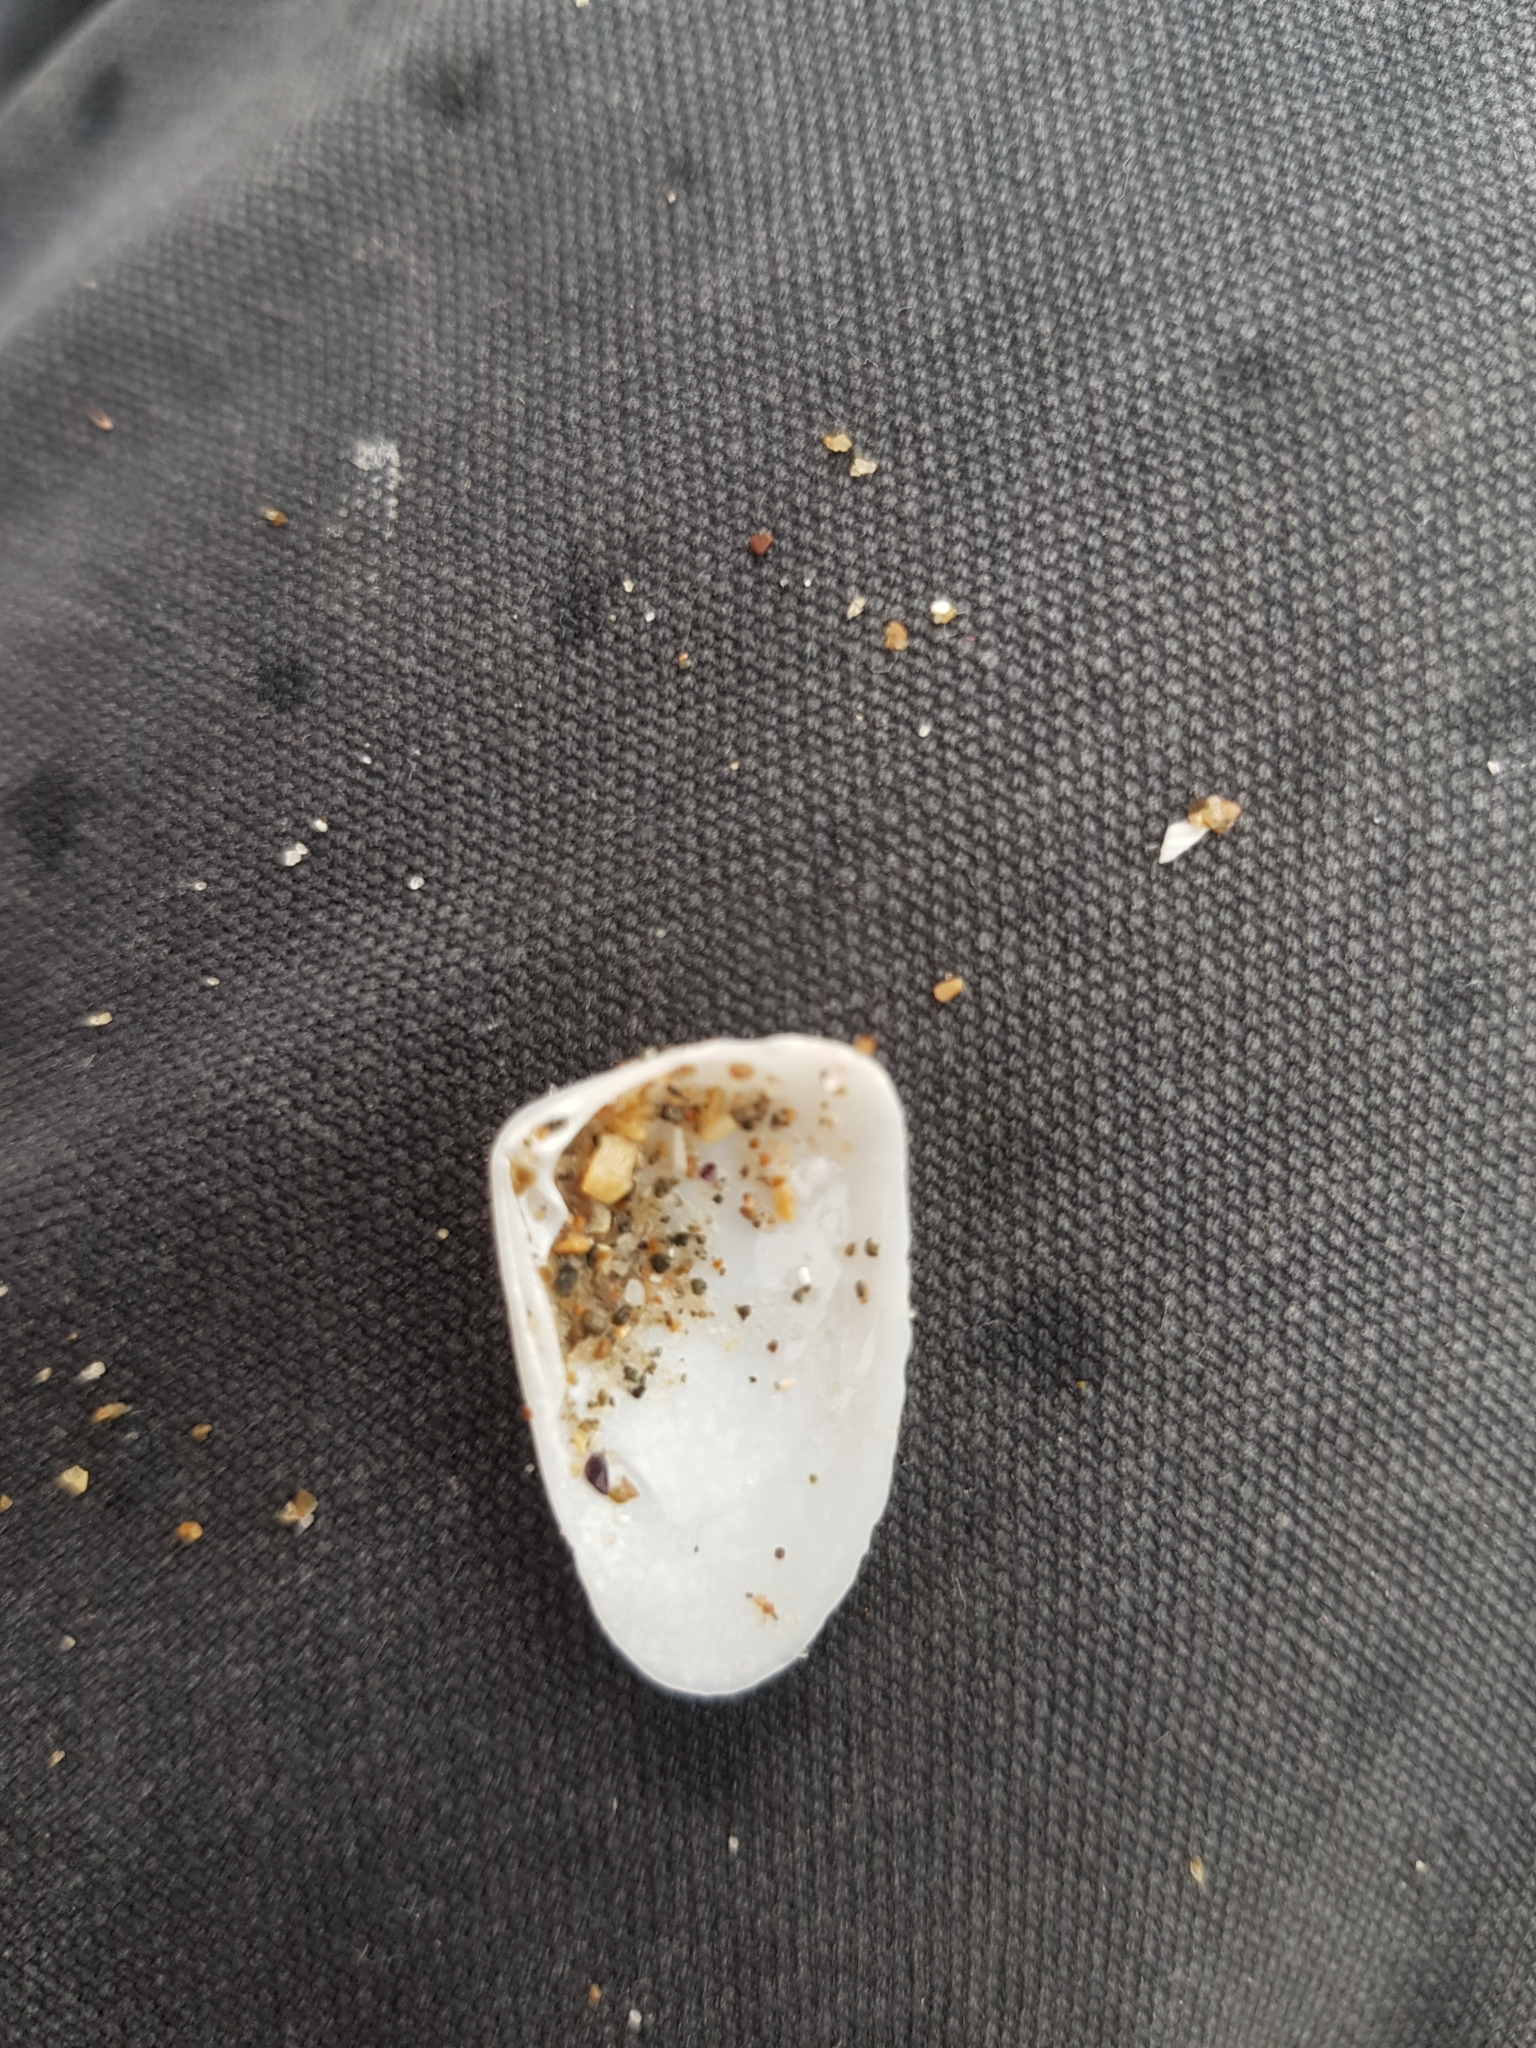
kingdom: Animalia
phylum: Mollusca
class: Bivalvia
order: Venerida
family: Mesodesmatidae
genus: Paphies
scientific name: Paphies angusta
